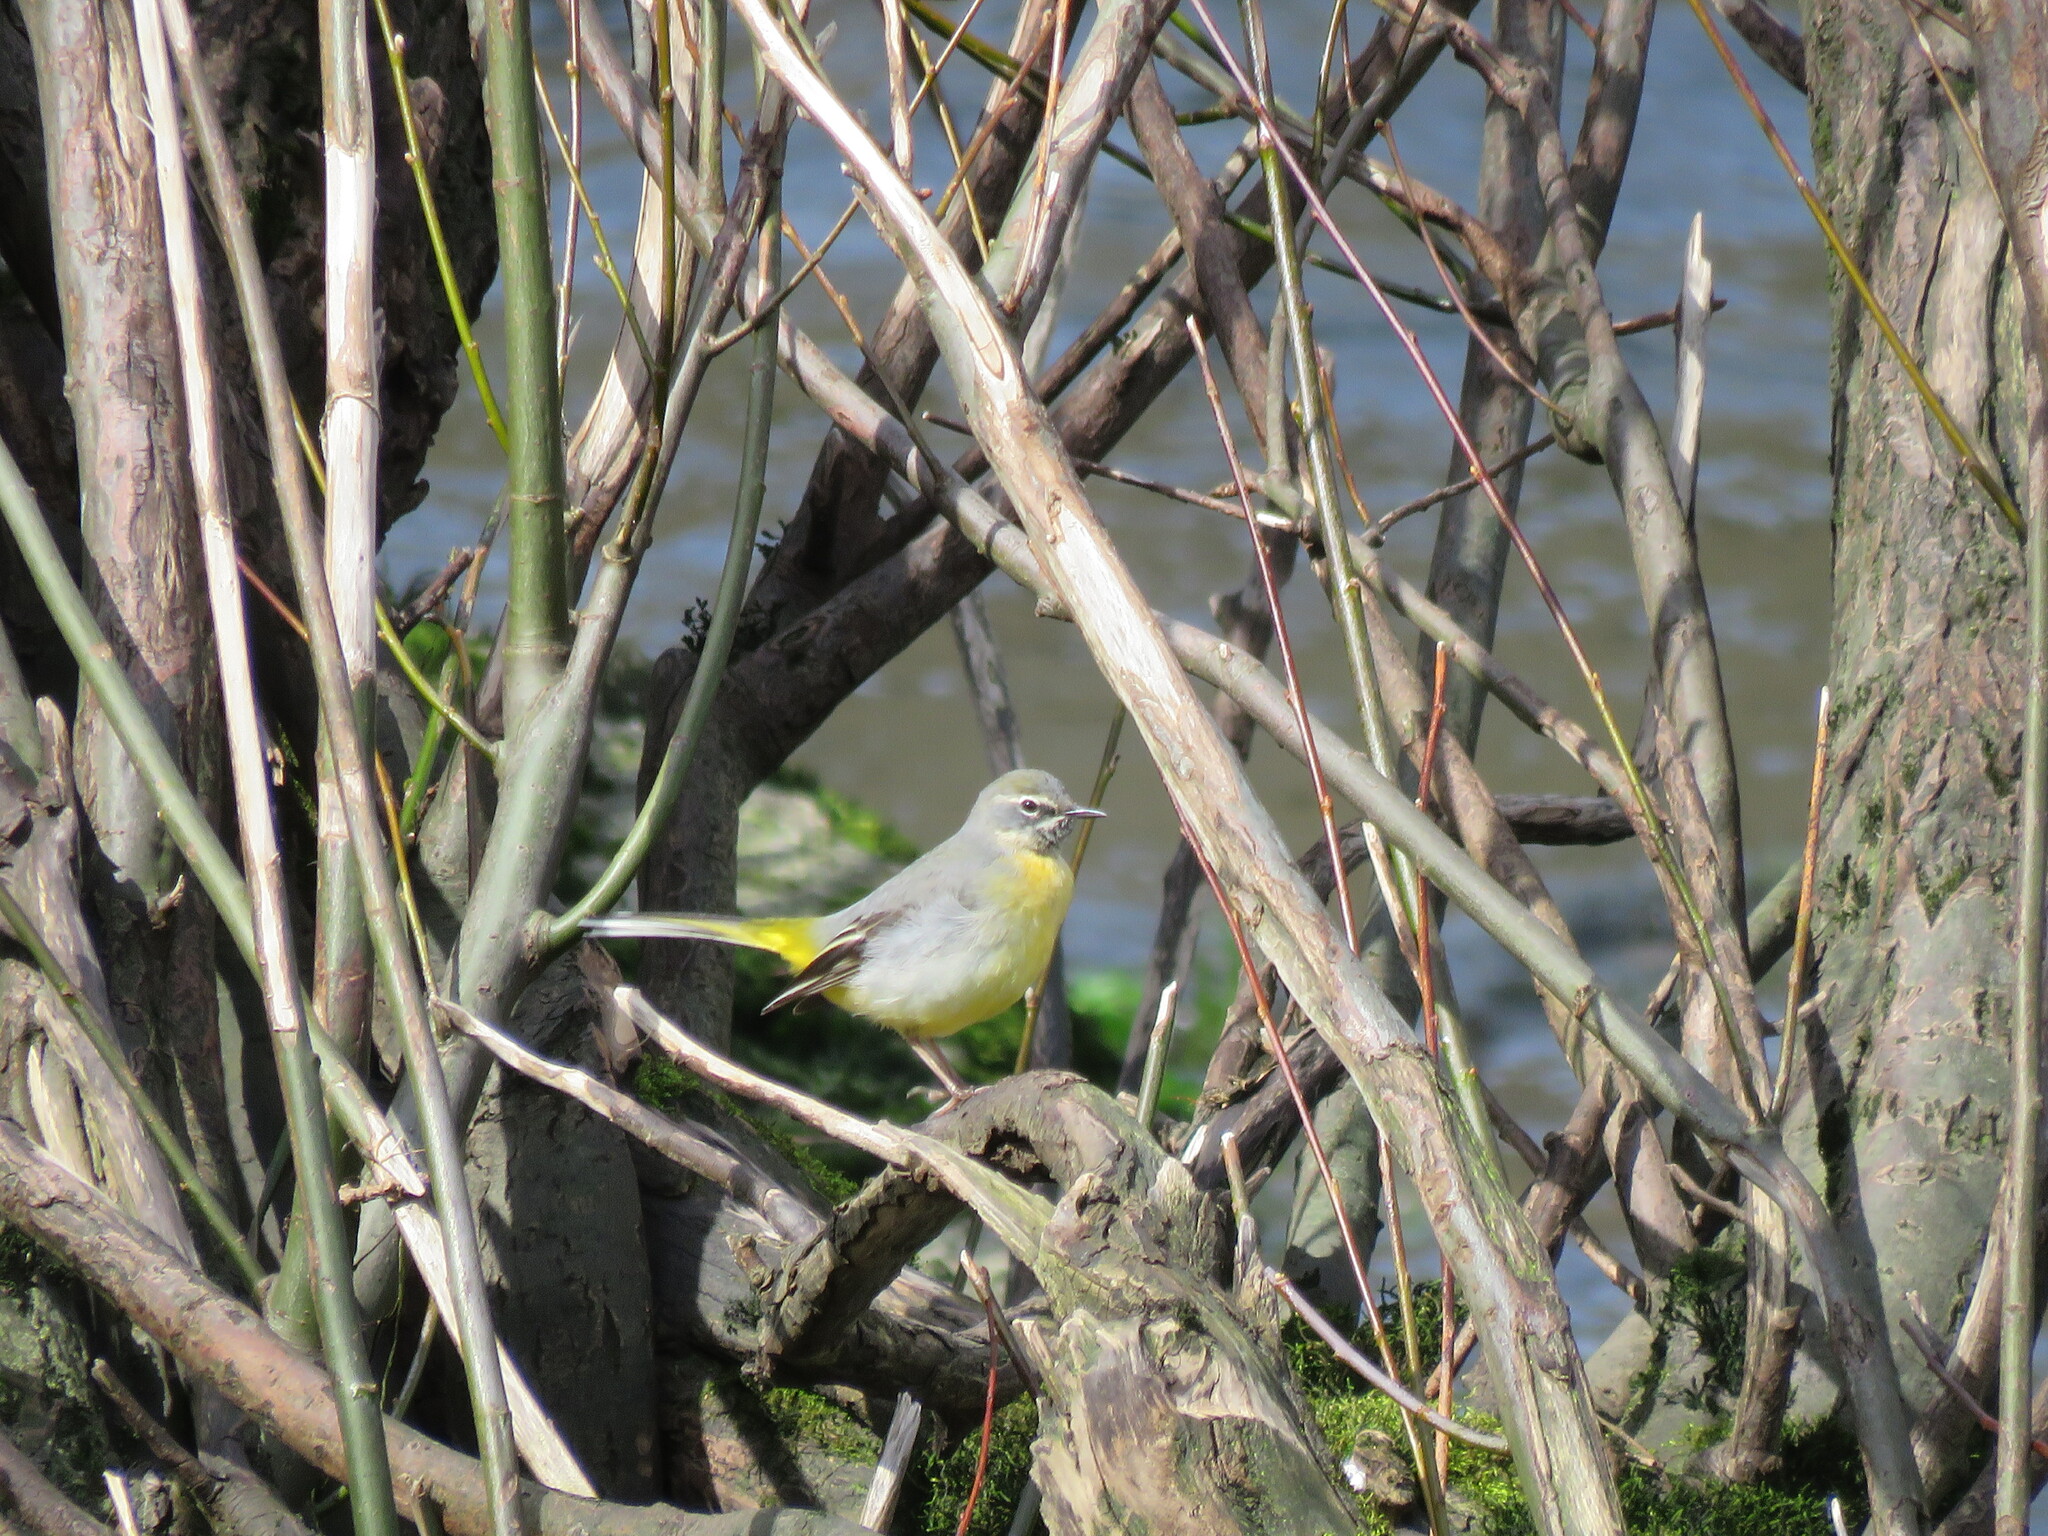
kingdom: Animalia
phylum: Chordata
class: Aves
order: Passeriformes
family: Motacillidae
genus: Motacilla
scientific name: Motacilla cinerea
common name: Grey wagtail
